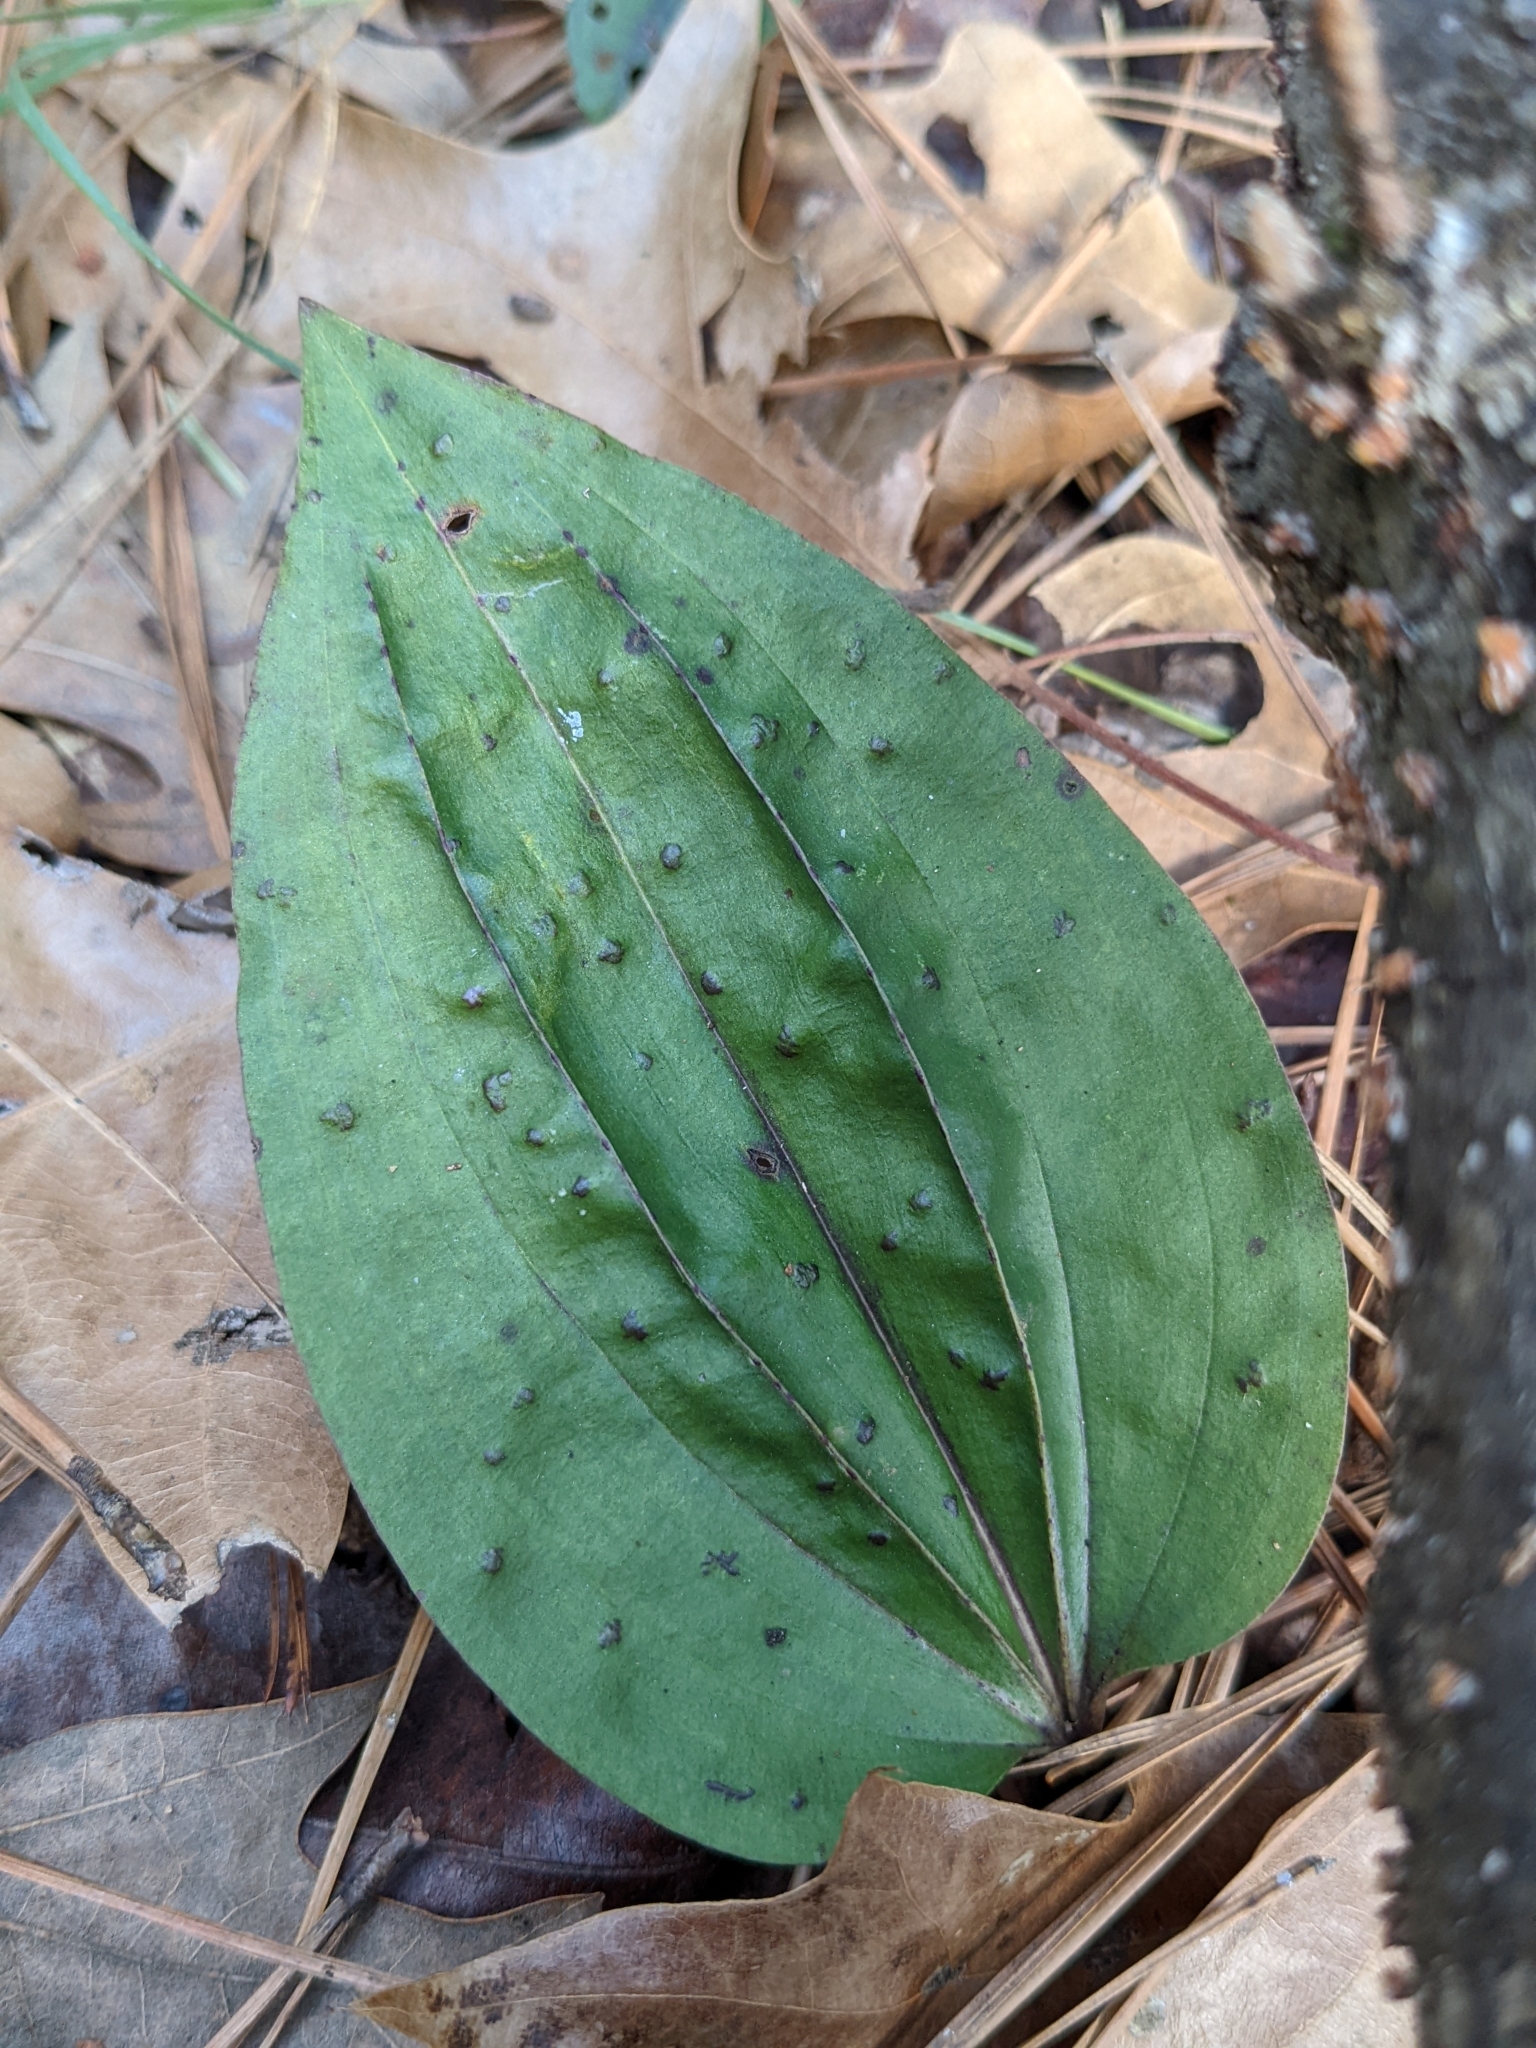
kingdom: Plantae
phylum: Tracheophyta
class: Liliopsida
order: Asparagales
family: Orchidaceae
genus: Tipularia
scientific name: Tipularia discolor
